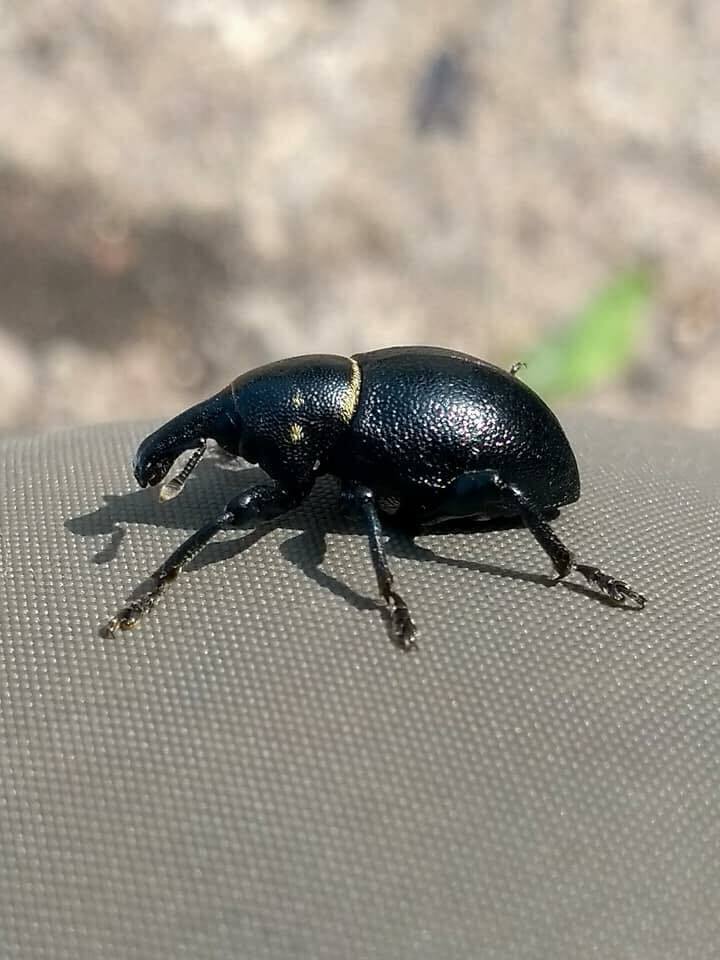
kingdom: Animalia
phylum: Arthropoda
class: Insecta
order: Coleoptera
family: Curculionidae
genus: Liparus
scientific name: Liparus coronatus
